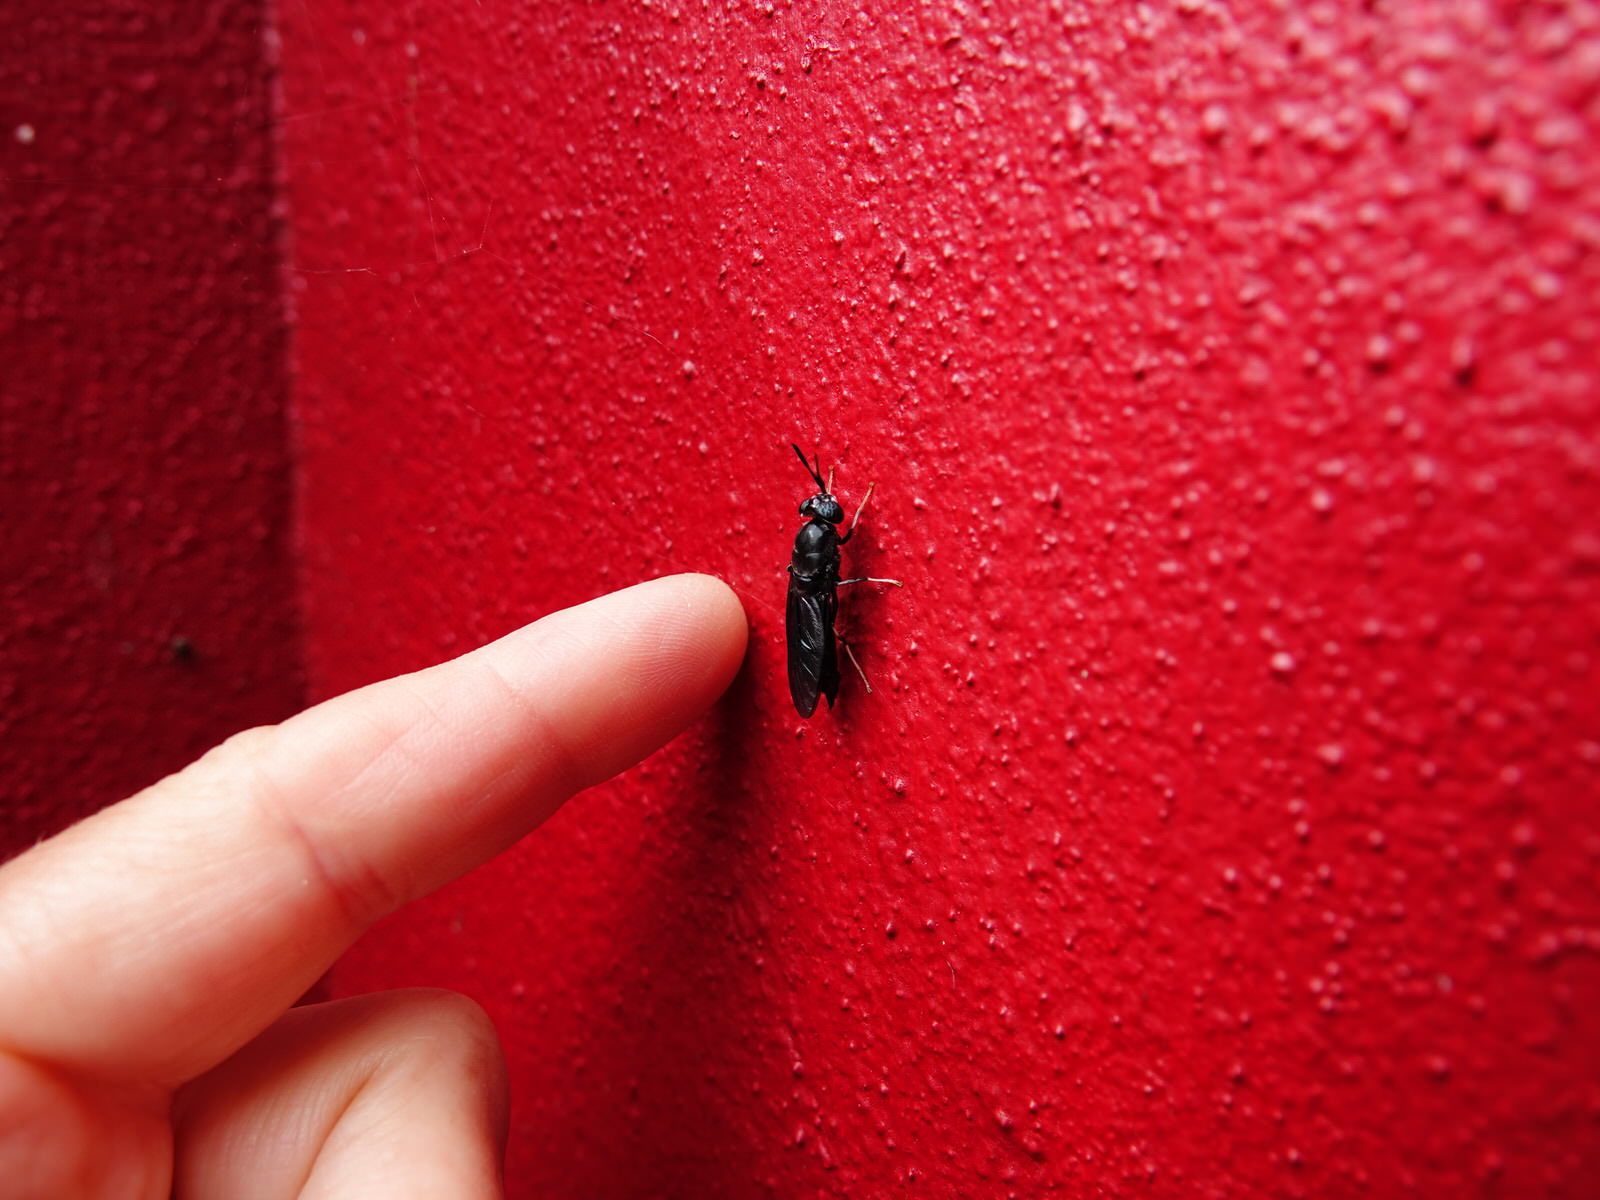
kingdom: Animalia
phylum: Arthropoda
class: Insecta
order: Diptera
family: Stratiomyidae
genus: Hermetia
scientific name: Hermetia illucens
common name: Black soldier fly
